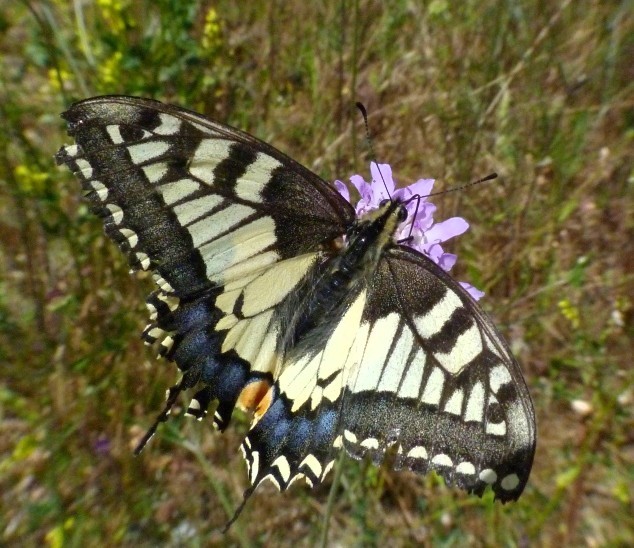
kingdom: Animalia
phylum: Arthropoda
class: Insecta
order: Lepidoptera
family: Papilionidae
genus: Papilio
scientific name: Papilio machaon
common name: Swallowtail
